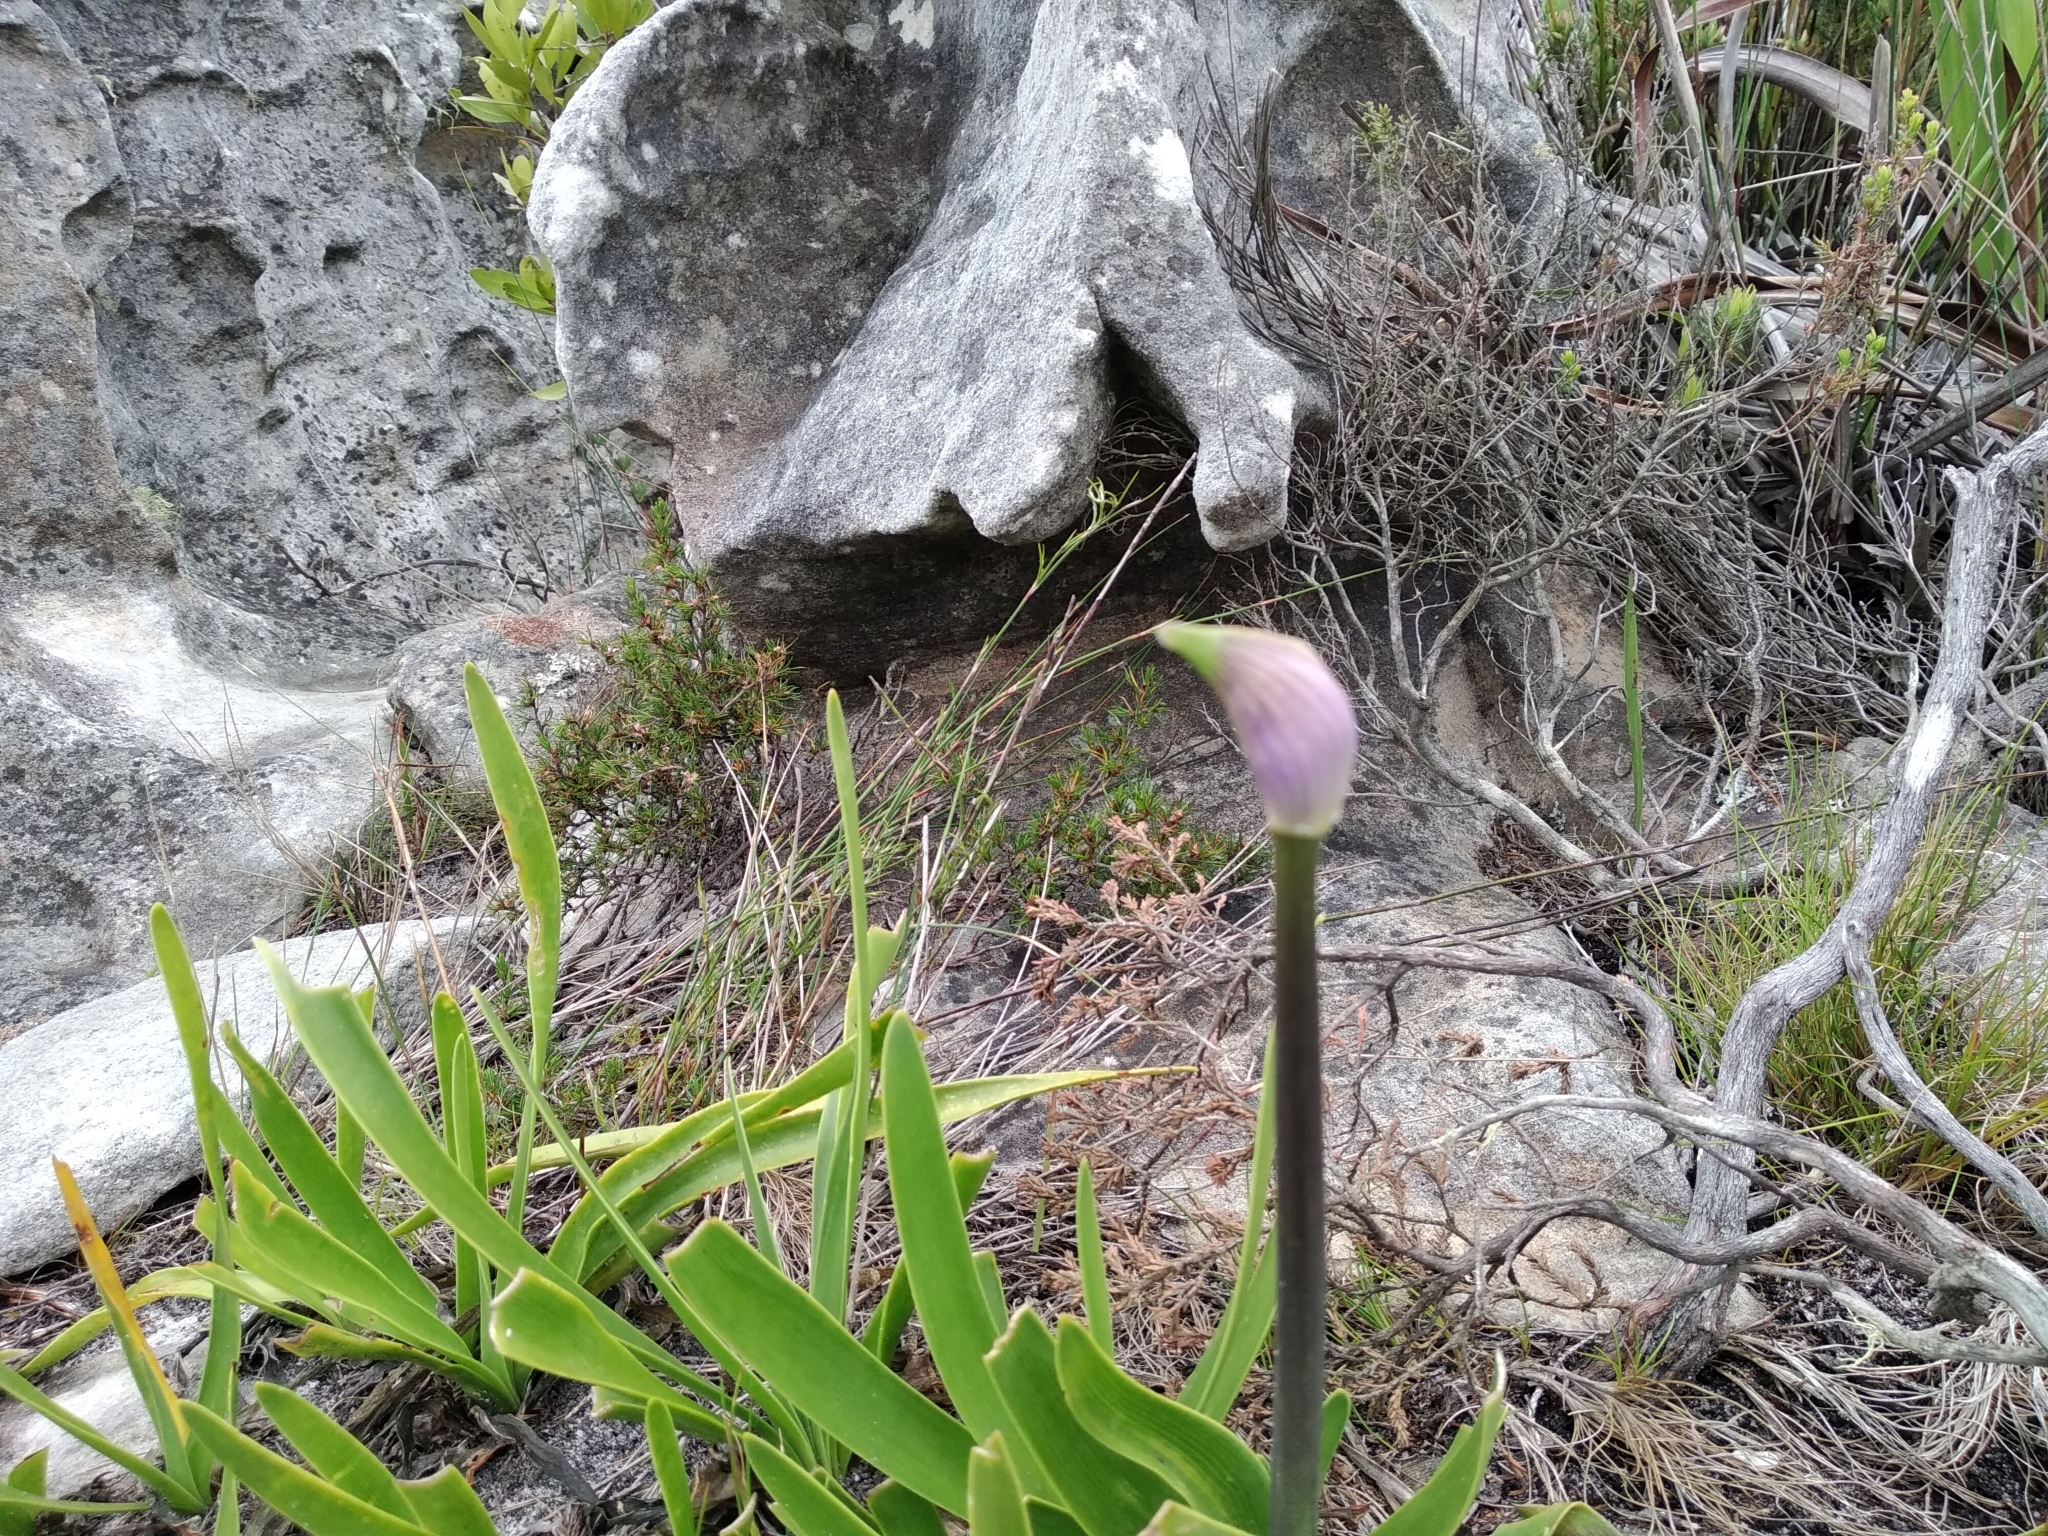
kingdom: Plantae
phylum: Tracheophyta
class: Liliopsida
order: Asparagales
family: Amaryllidaceae
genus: Agapanthus
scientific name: Agapanthus africanus
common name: Lily-of-the-nile
